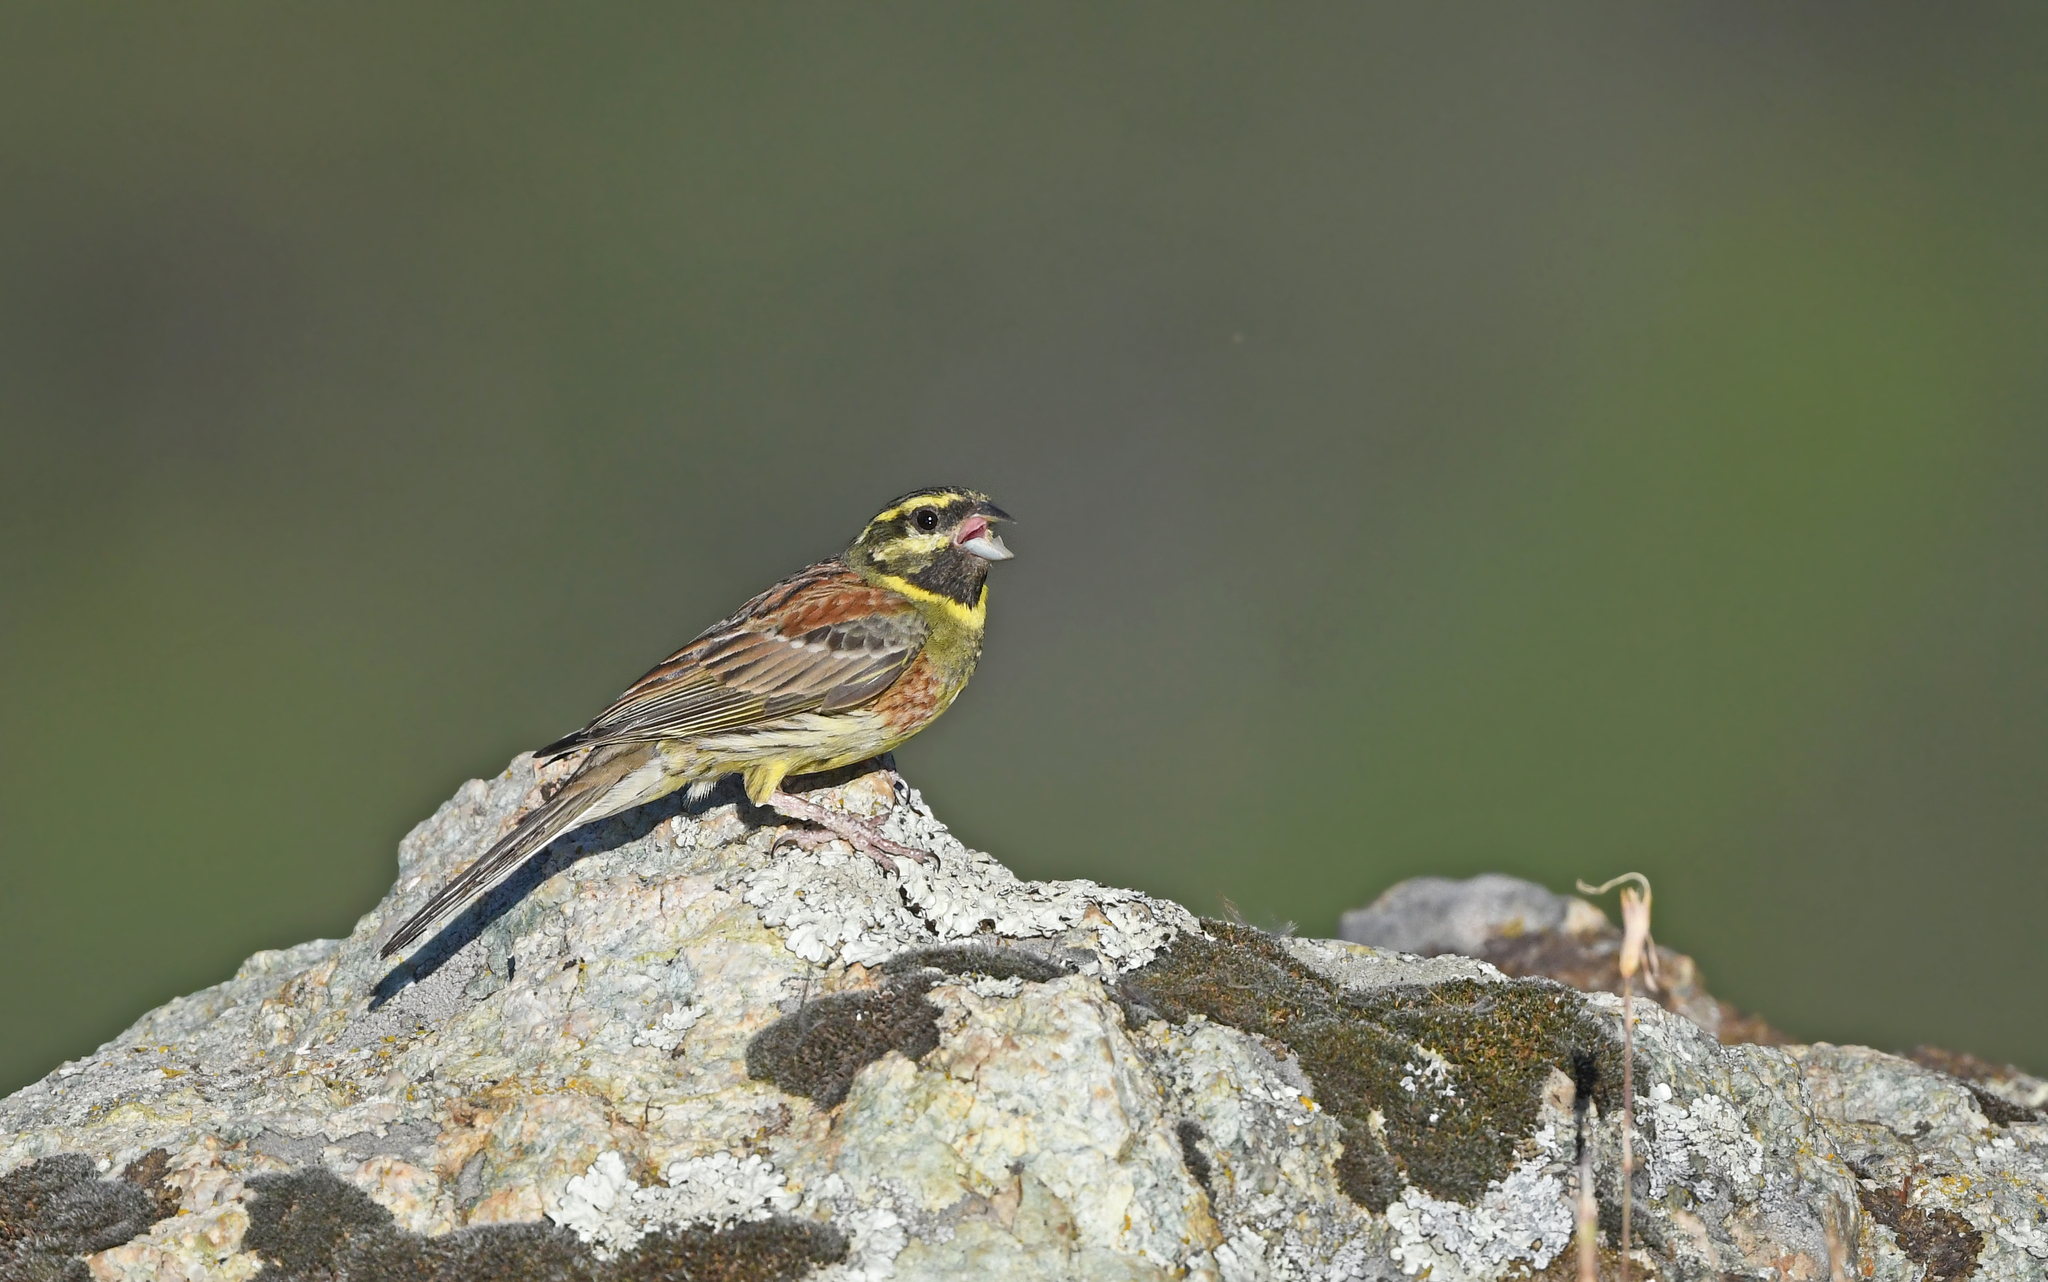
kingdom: Animalia
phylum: Chordata
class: Aves
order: Passeriformes
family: Emberizidae
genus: Emberiza
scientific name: Emberiza cirlus
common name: Cirl bunting
